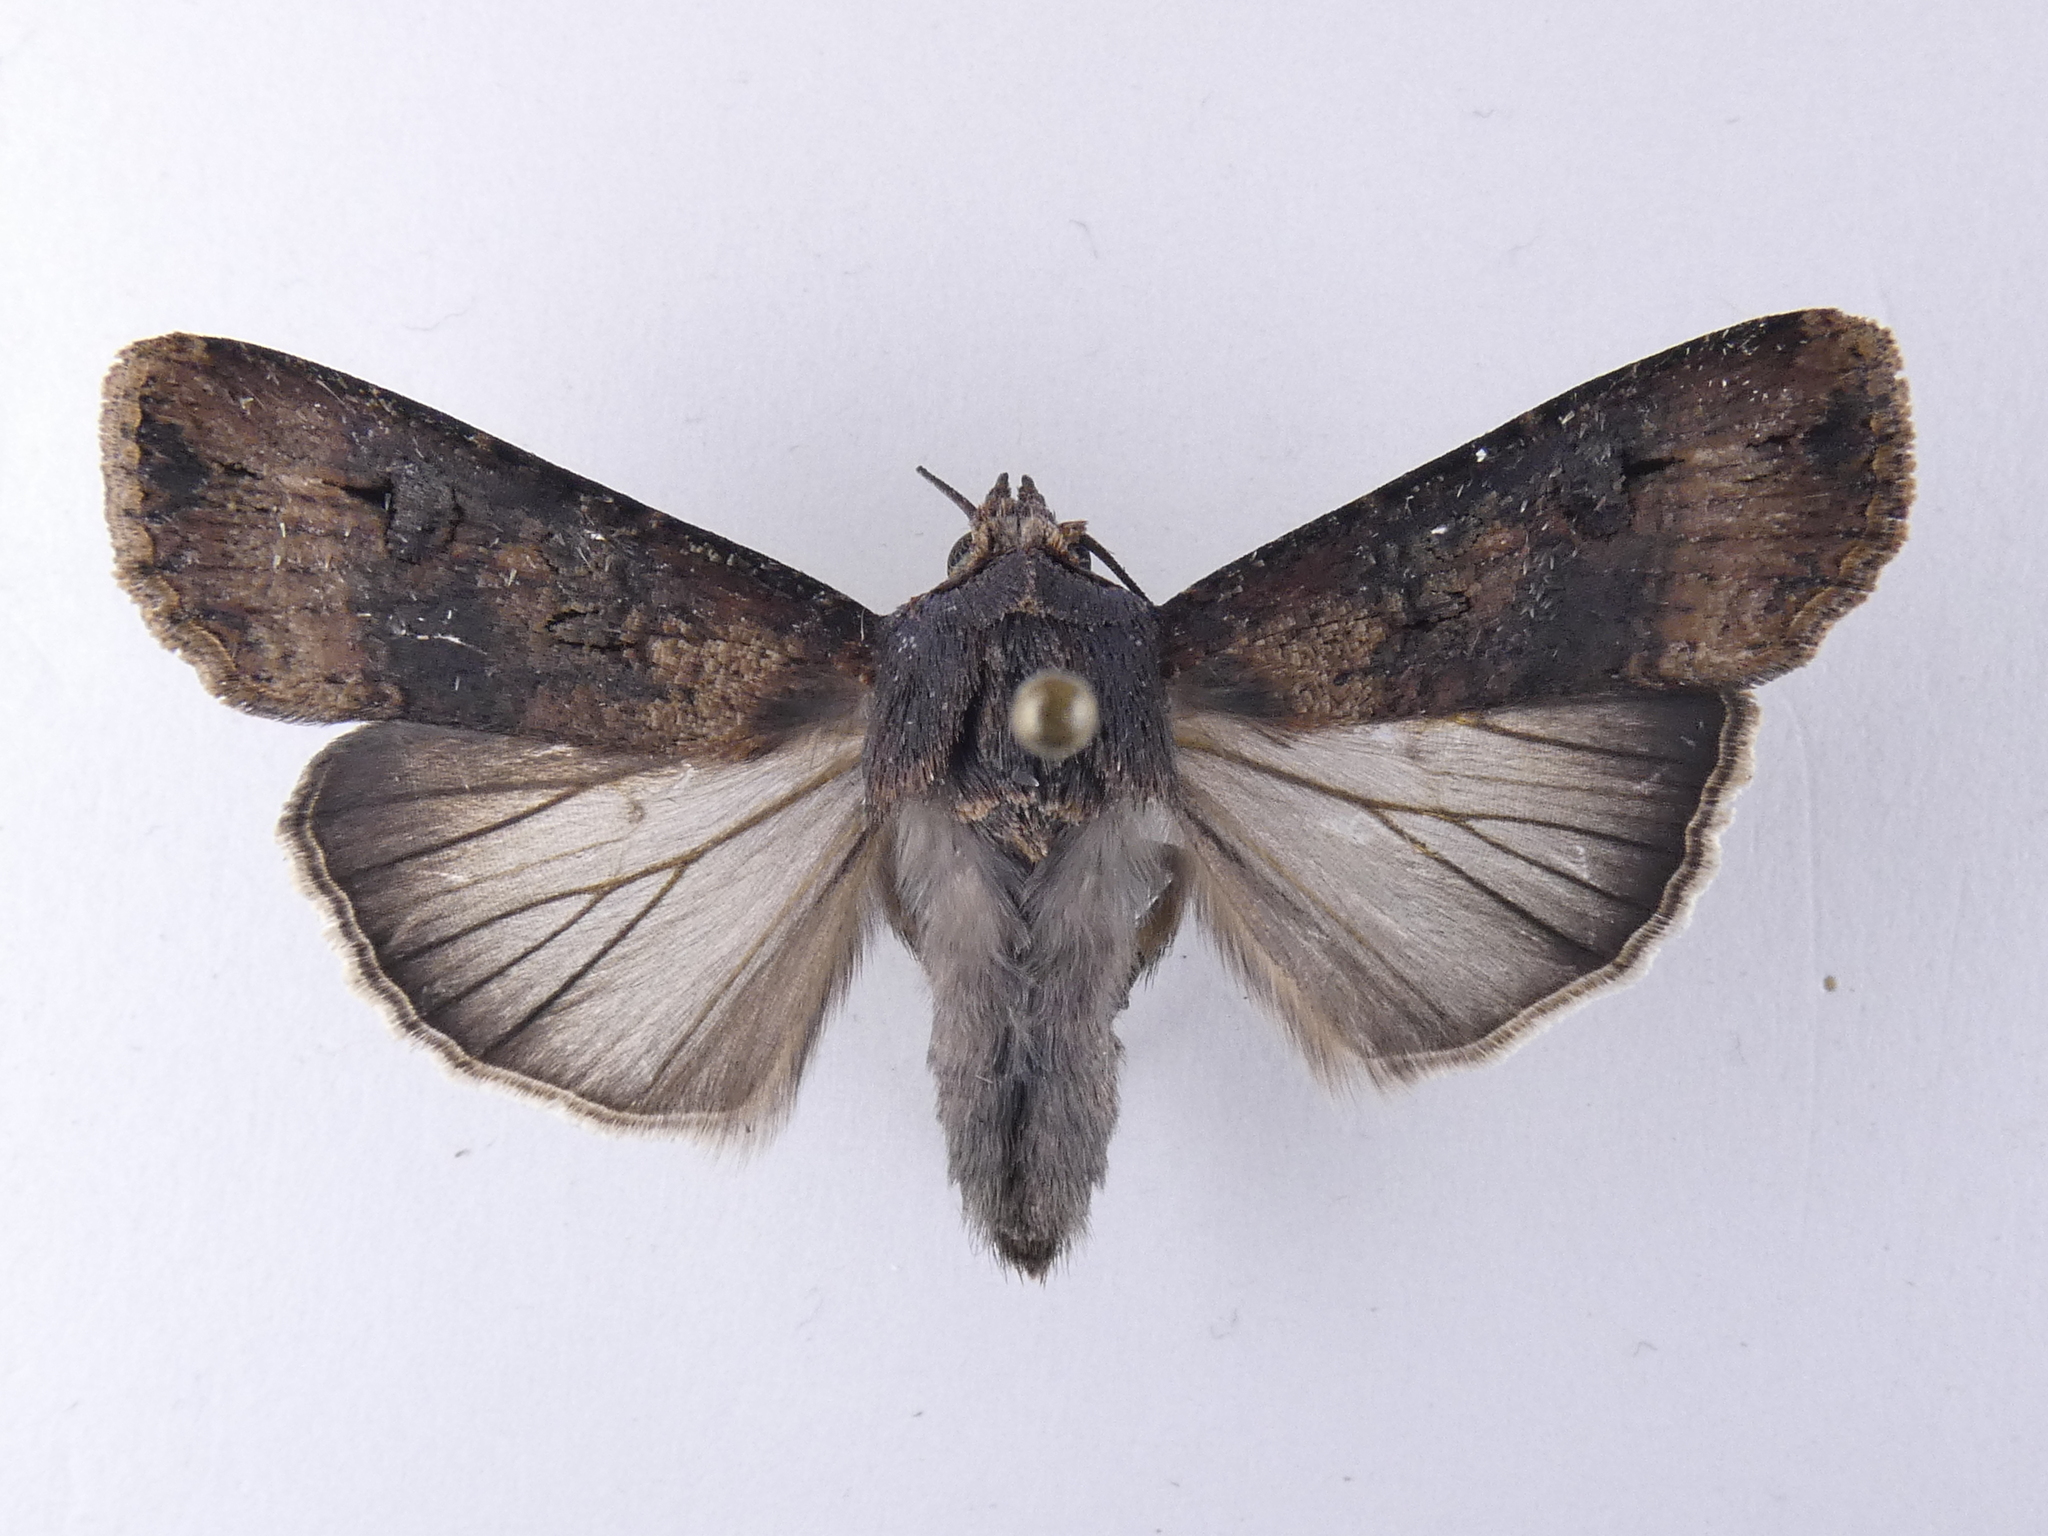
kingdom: Animalia
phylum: Arthropoda
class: Insecta
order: Lepidoptera
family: Noctuidae
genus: Agrotis
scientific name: Agrotis ipsilon
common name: Dark sword-grass
